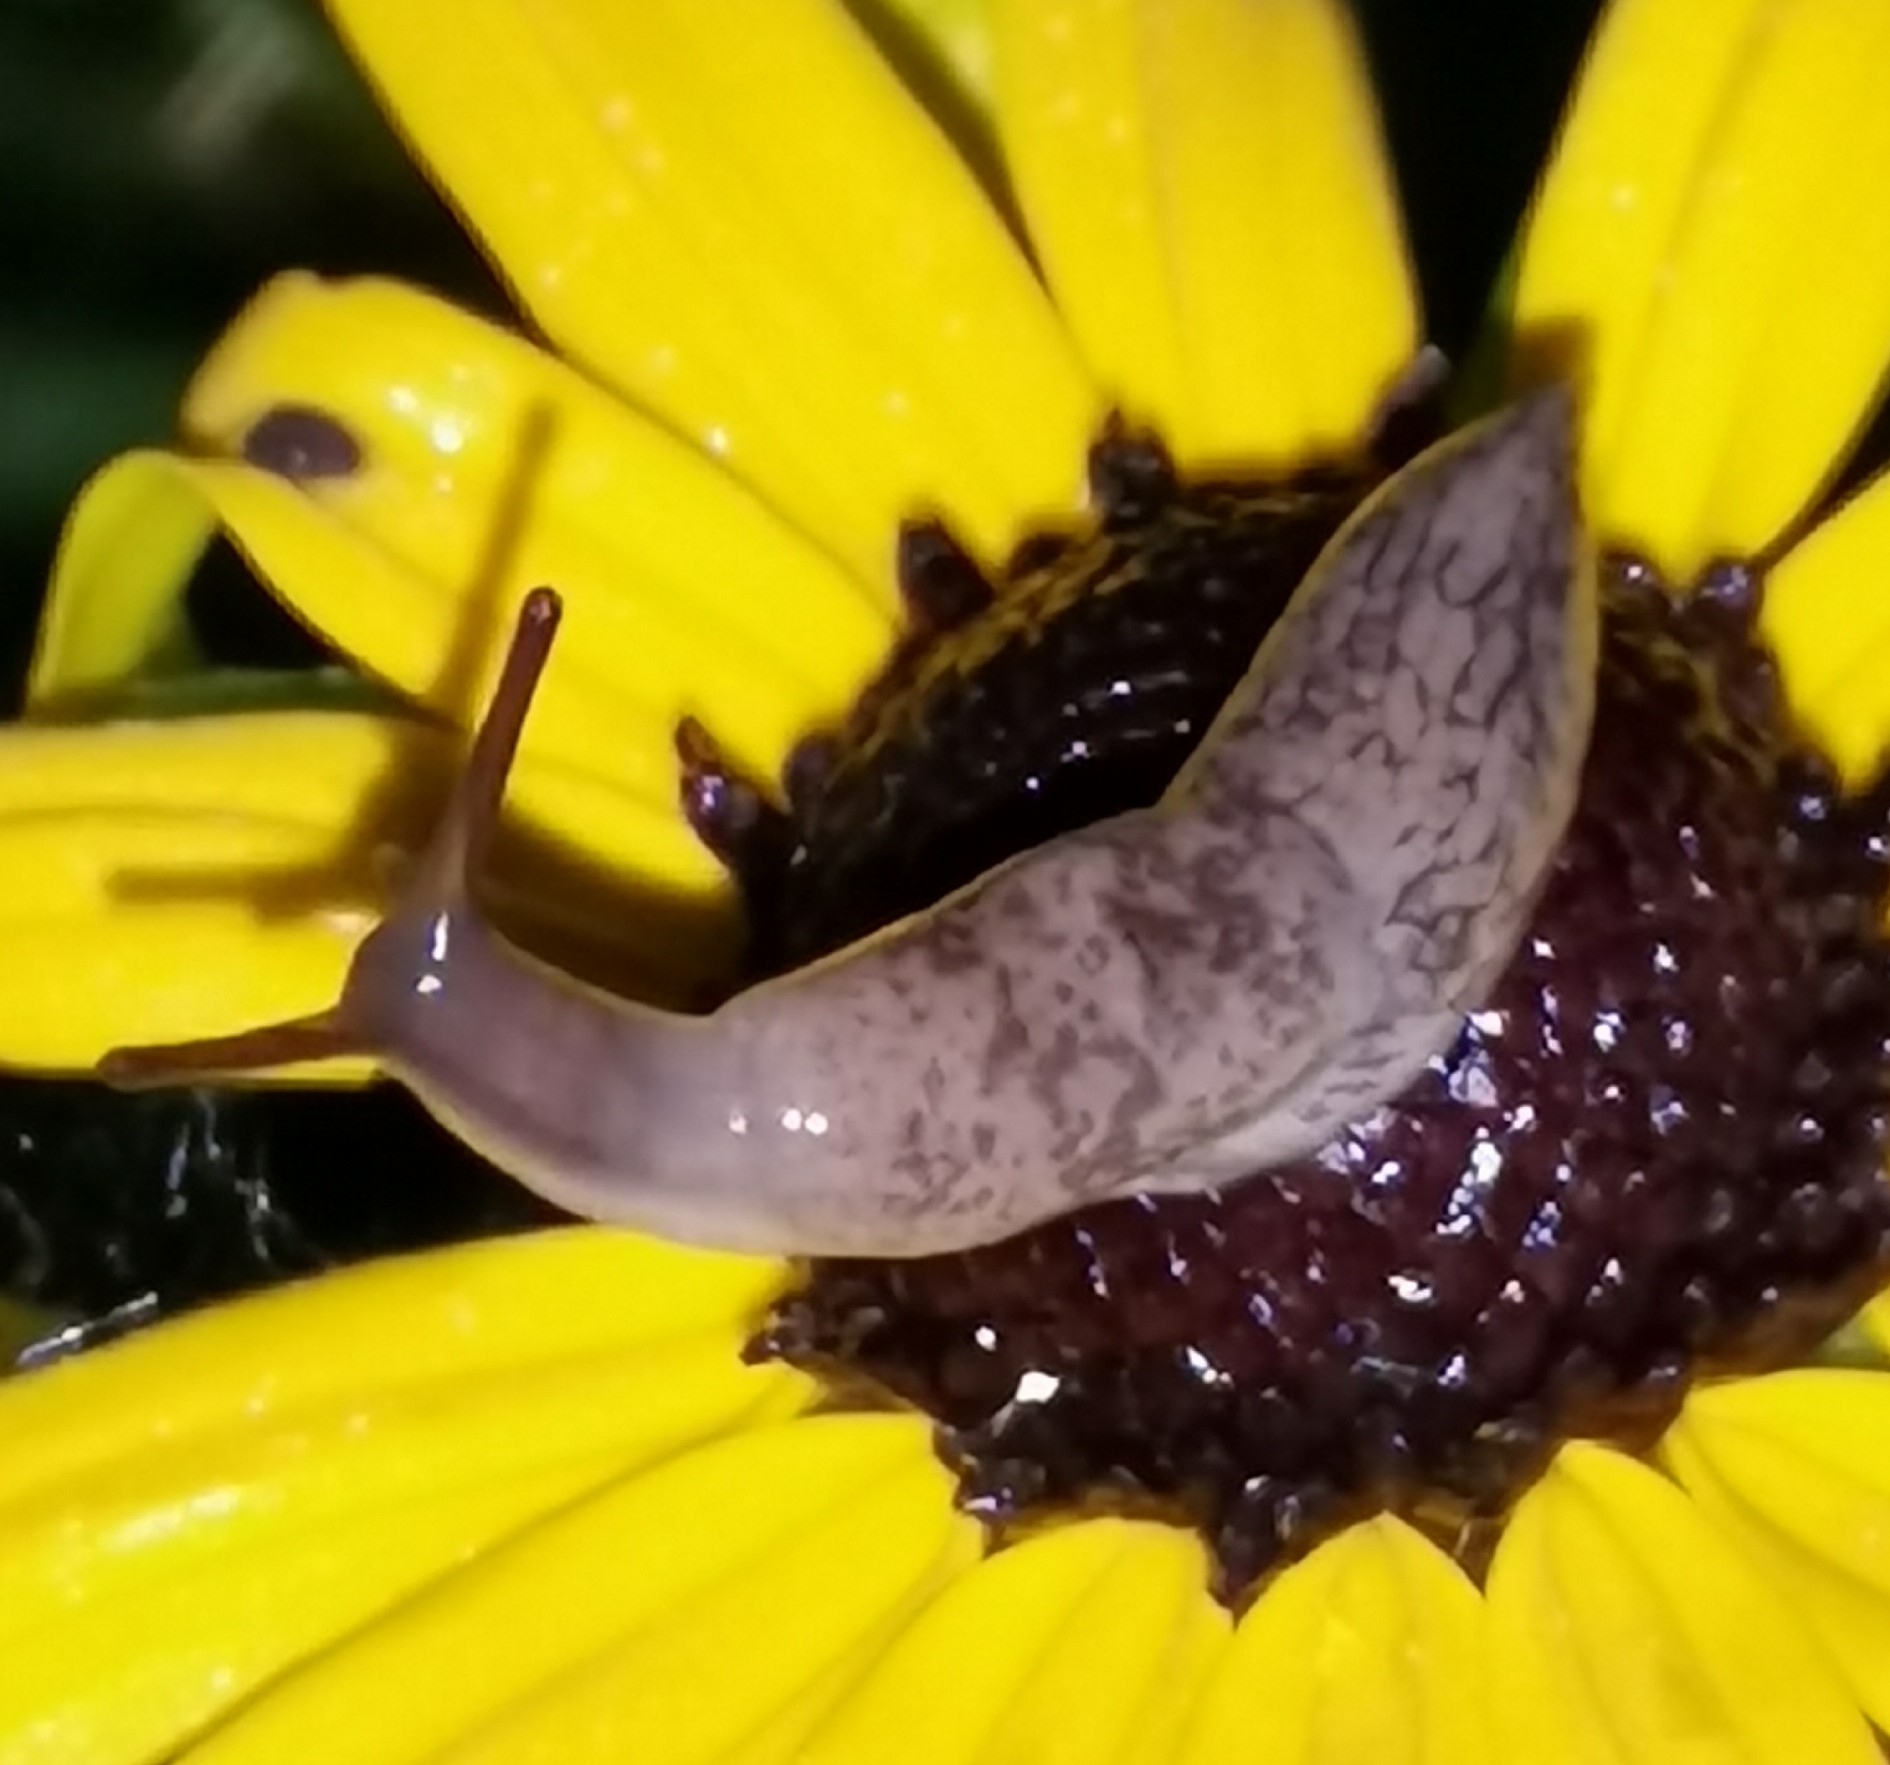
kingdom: Animalia
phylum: Mollusca
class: Gastropoda
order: Stylommatophora
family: Agriolimacidae
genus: Deroceras
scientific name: Deroceras reticulatum
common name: Gray field slug
